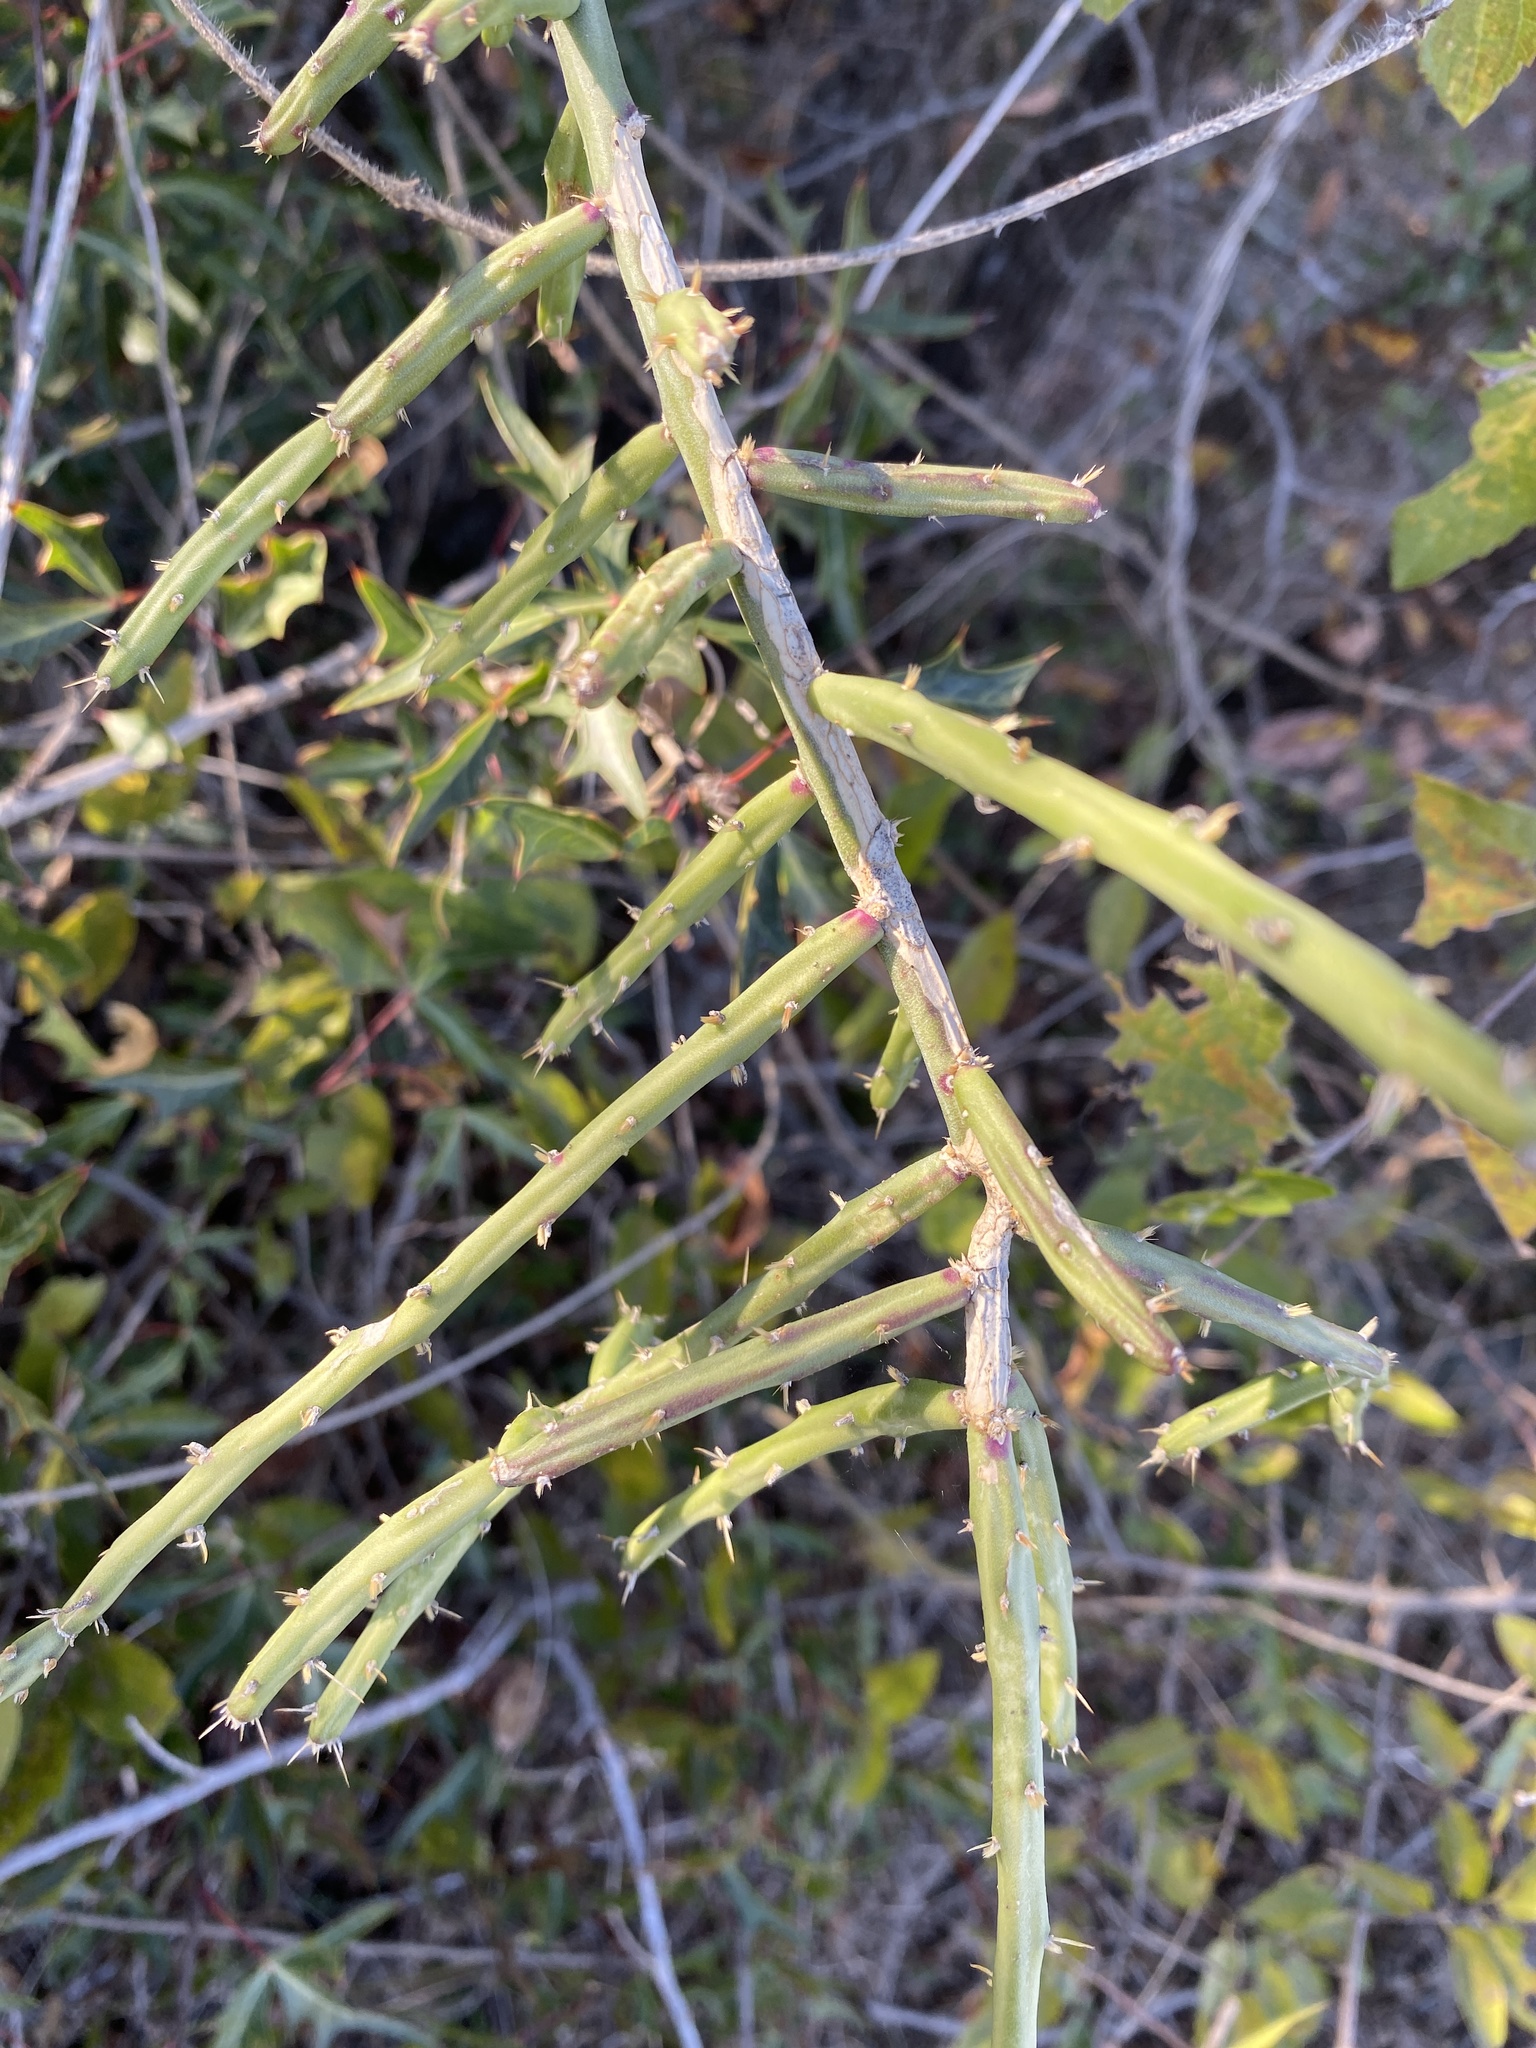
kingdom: Plantae
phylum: Tracheophyta
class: Magnoliopsida
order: Caryophyllales
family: Cactaceae
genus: Cylindropuntia
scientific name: Cylindropuntia leptocaulis
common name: Christmas cactus
